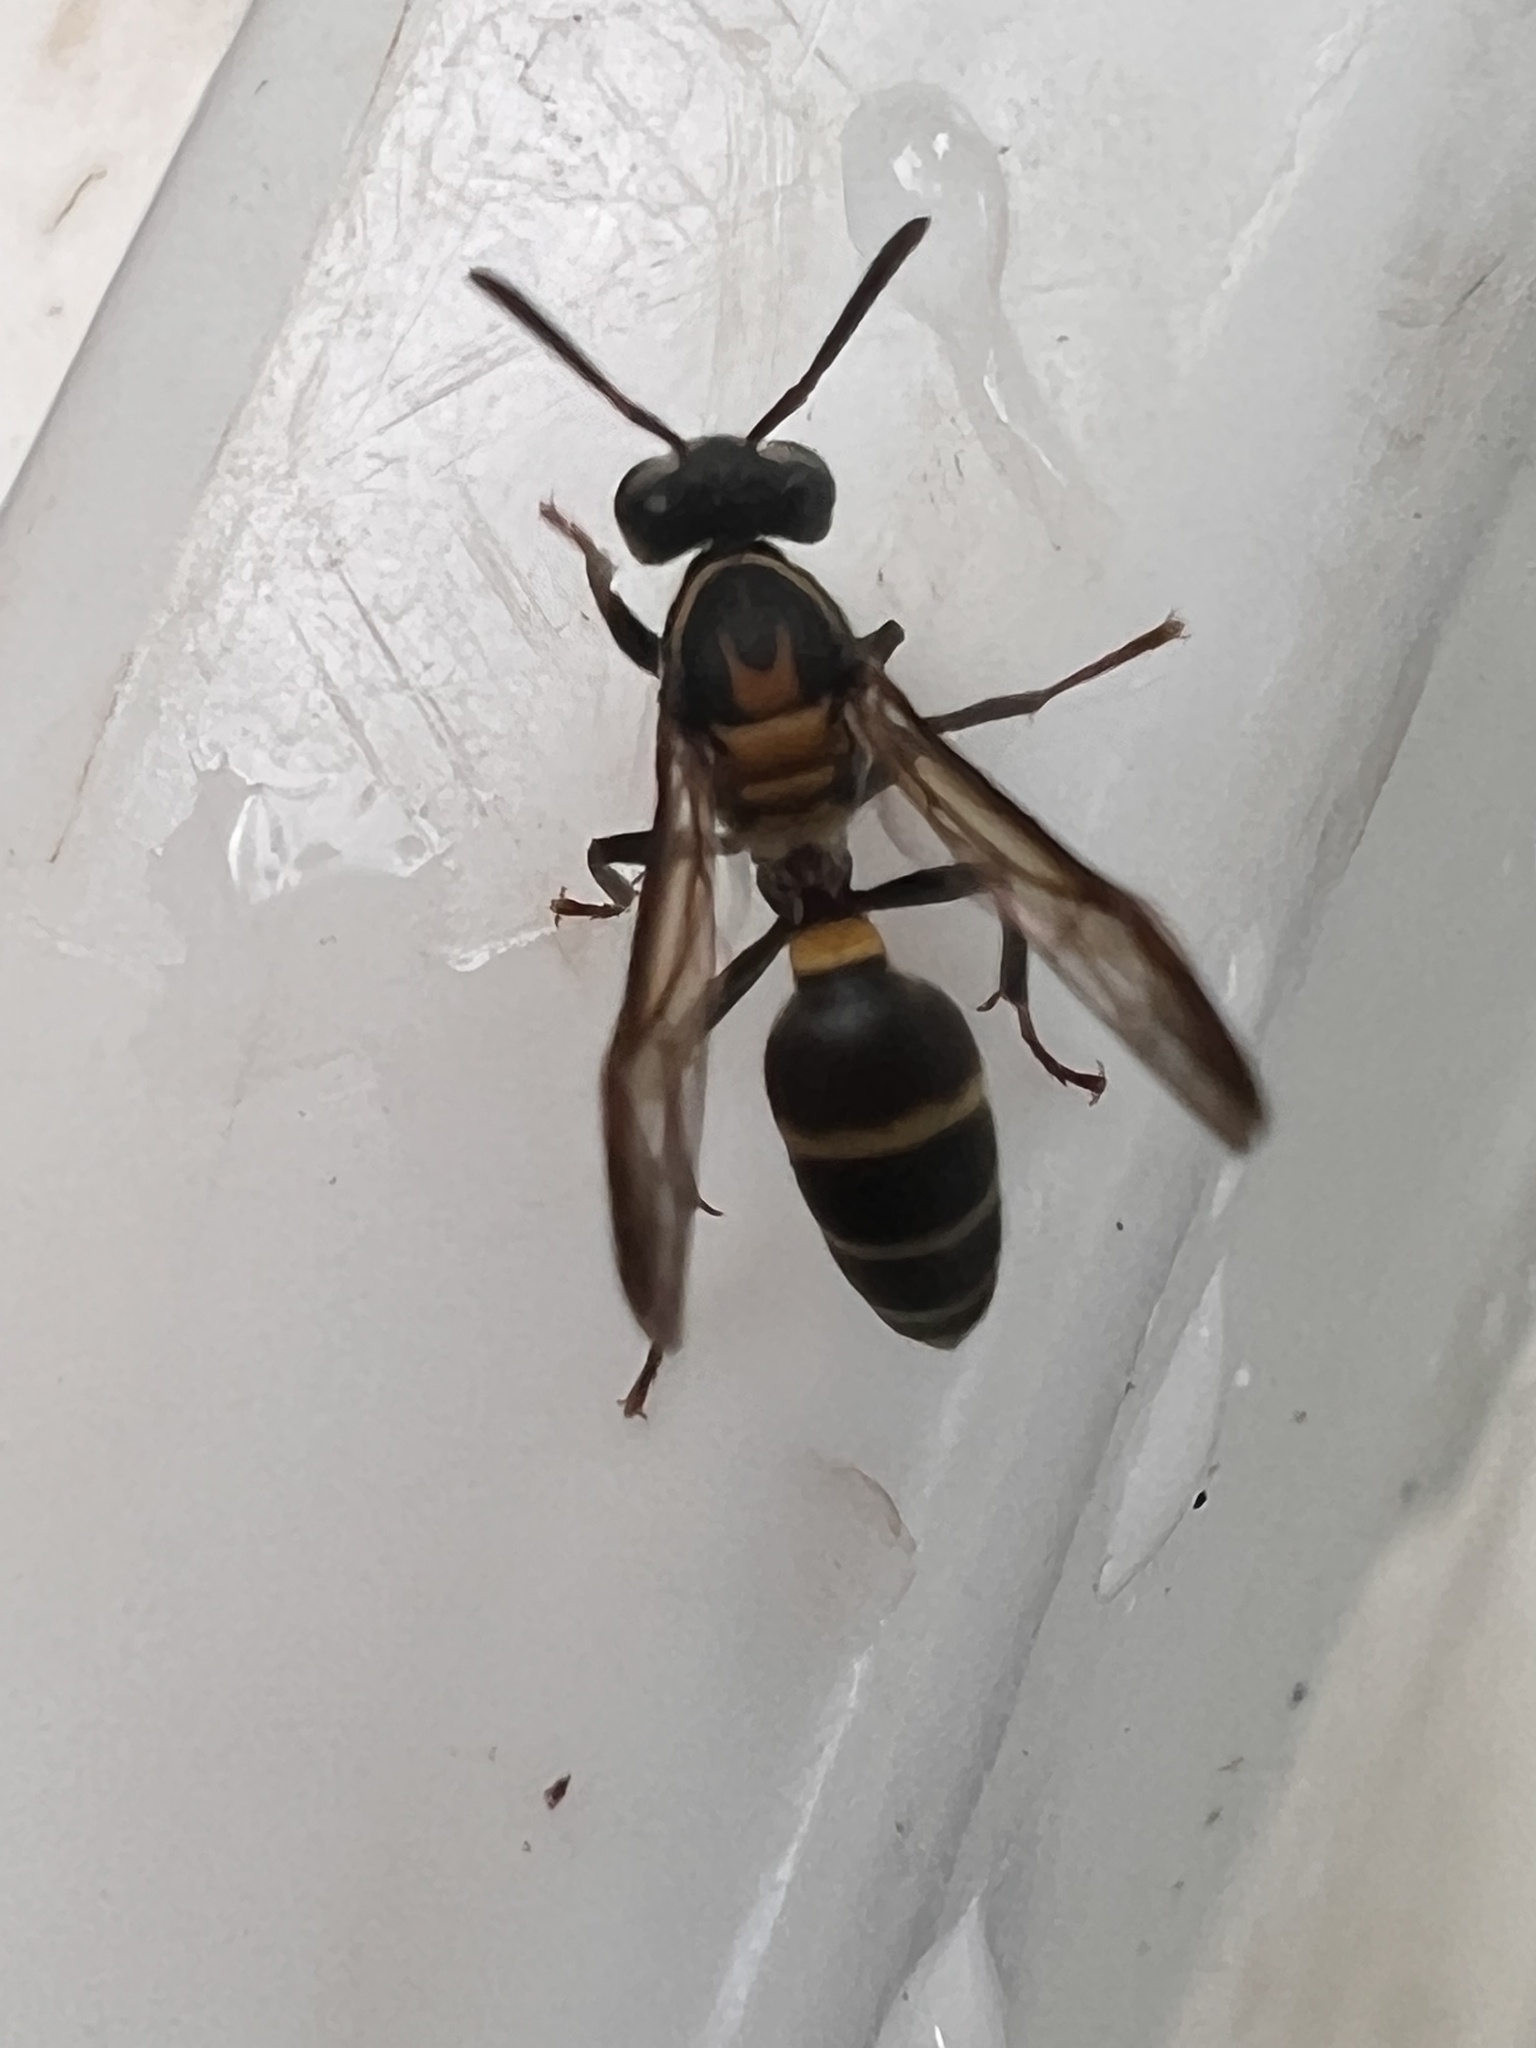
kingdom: Animalia
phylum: Arthropoda
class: Insecta
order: Hymenoptera
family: Eumenidae
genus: Polybia
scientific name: Polybia occidentalis
